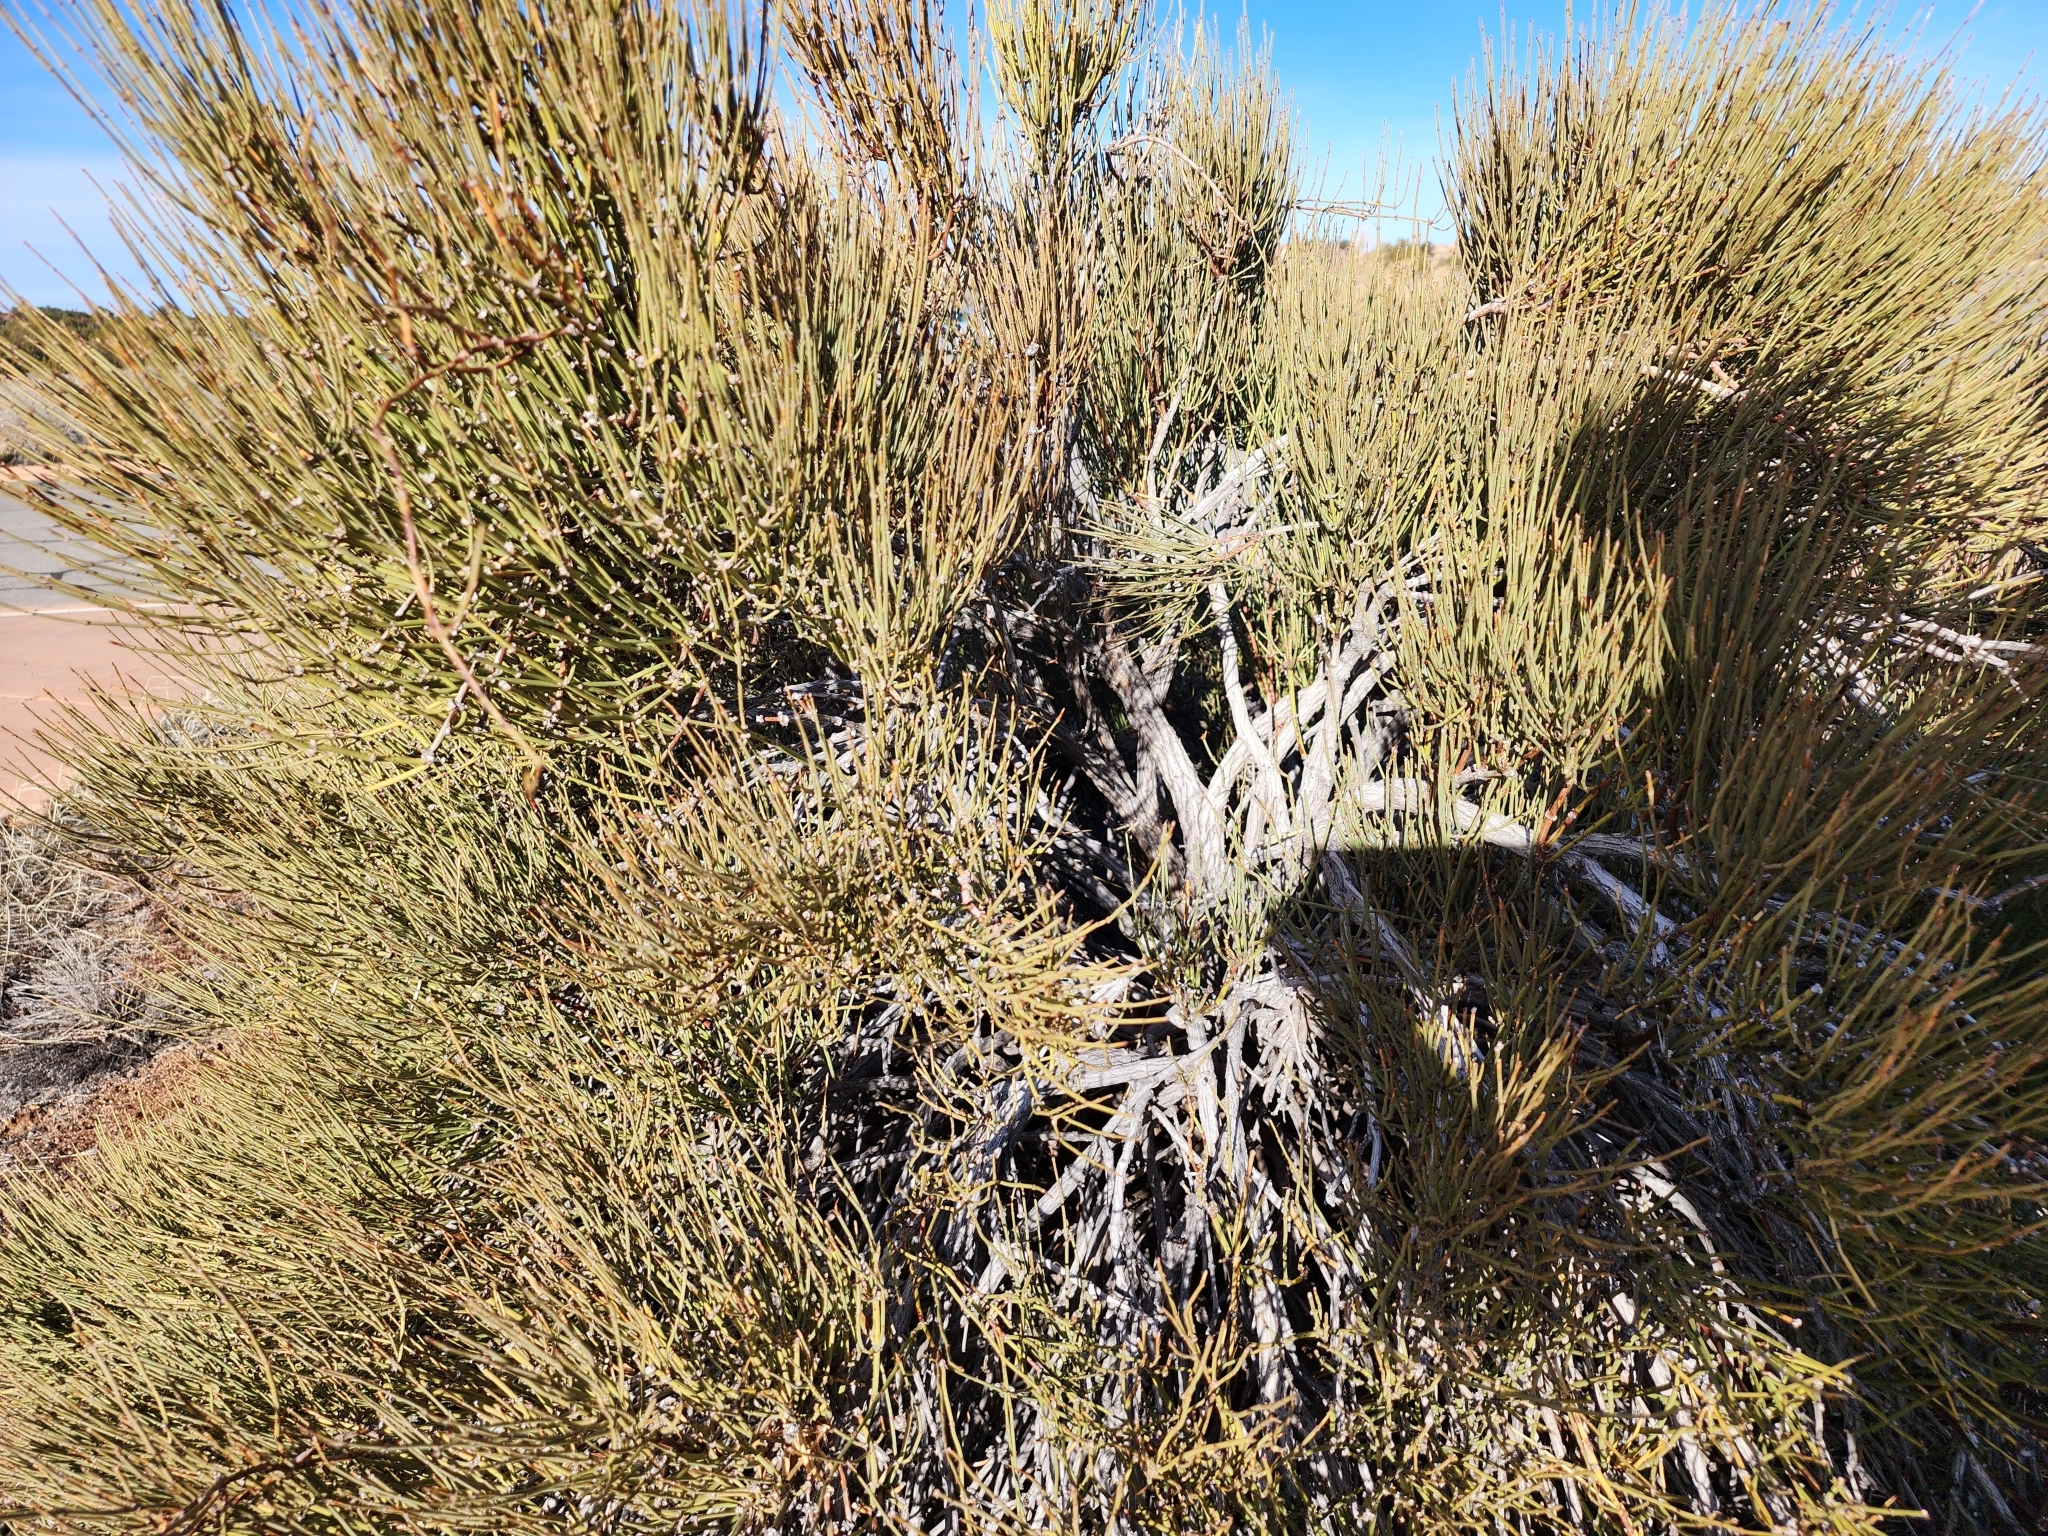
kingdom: Plantae
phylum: Tracheophyta
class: Gnetopsida
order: Ephedrales
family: Ephedraceae
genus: Ephedra
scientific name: Ephedra viridis
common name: Green ephedra
